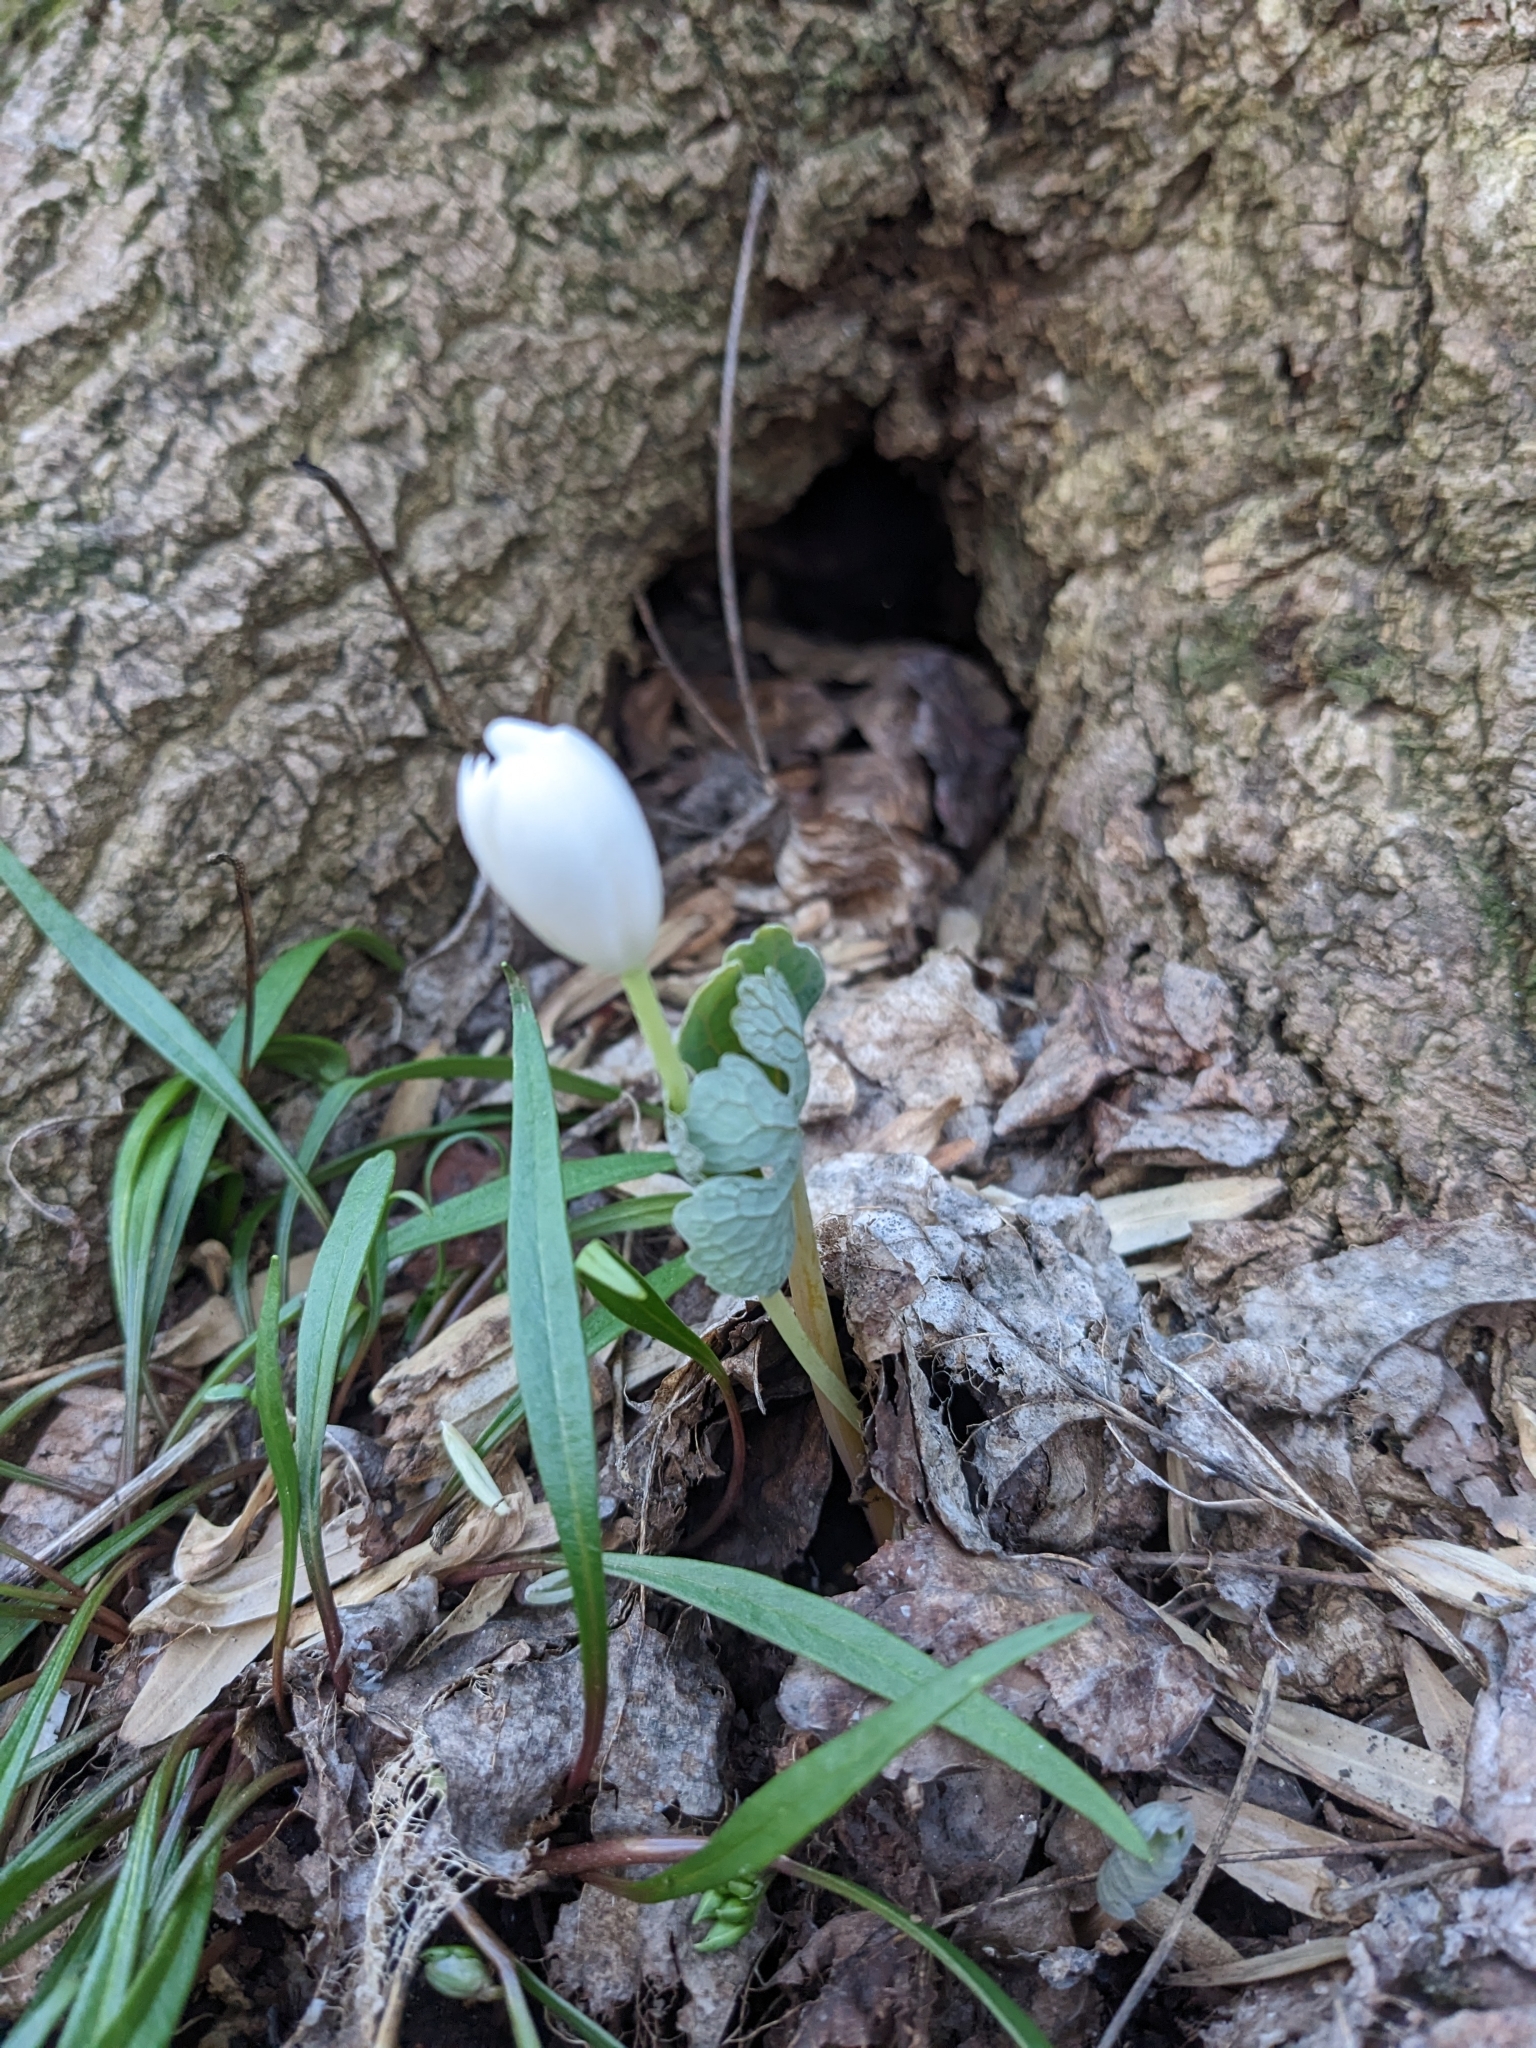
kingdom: Plantae
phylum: Tracheophyta
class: Magnoliopsida
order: Ranunculales
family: Papaveraceae
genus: Sanguinaria
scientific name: Sanguinaria canadensis
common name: Bloodroot
